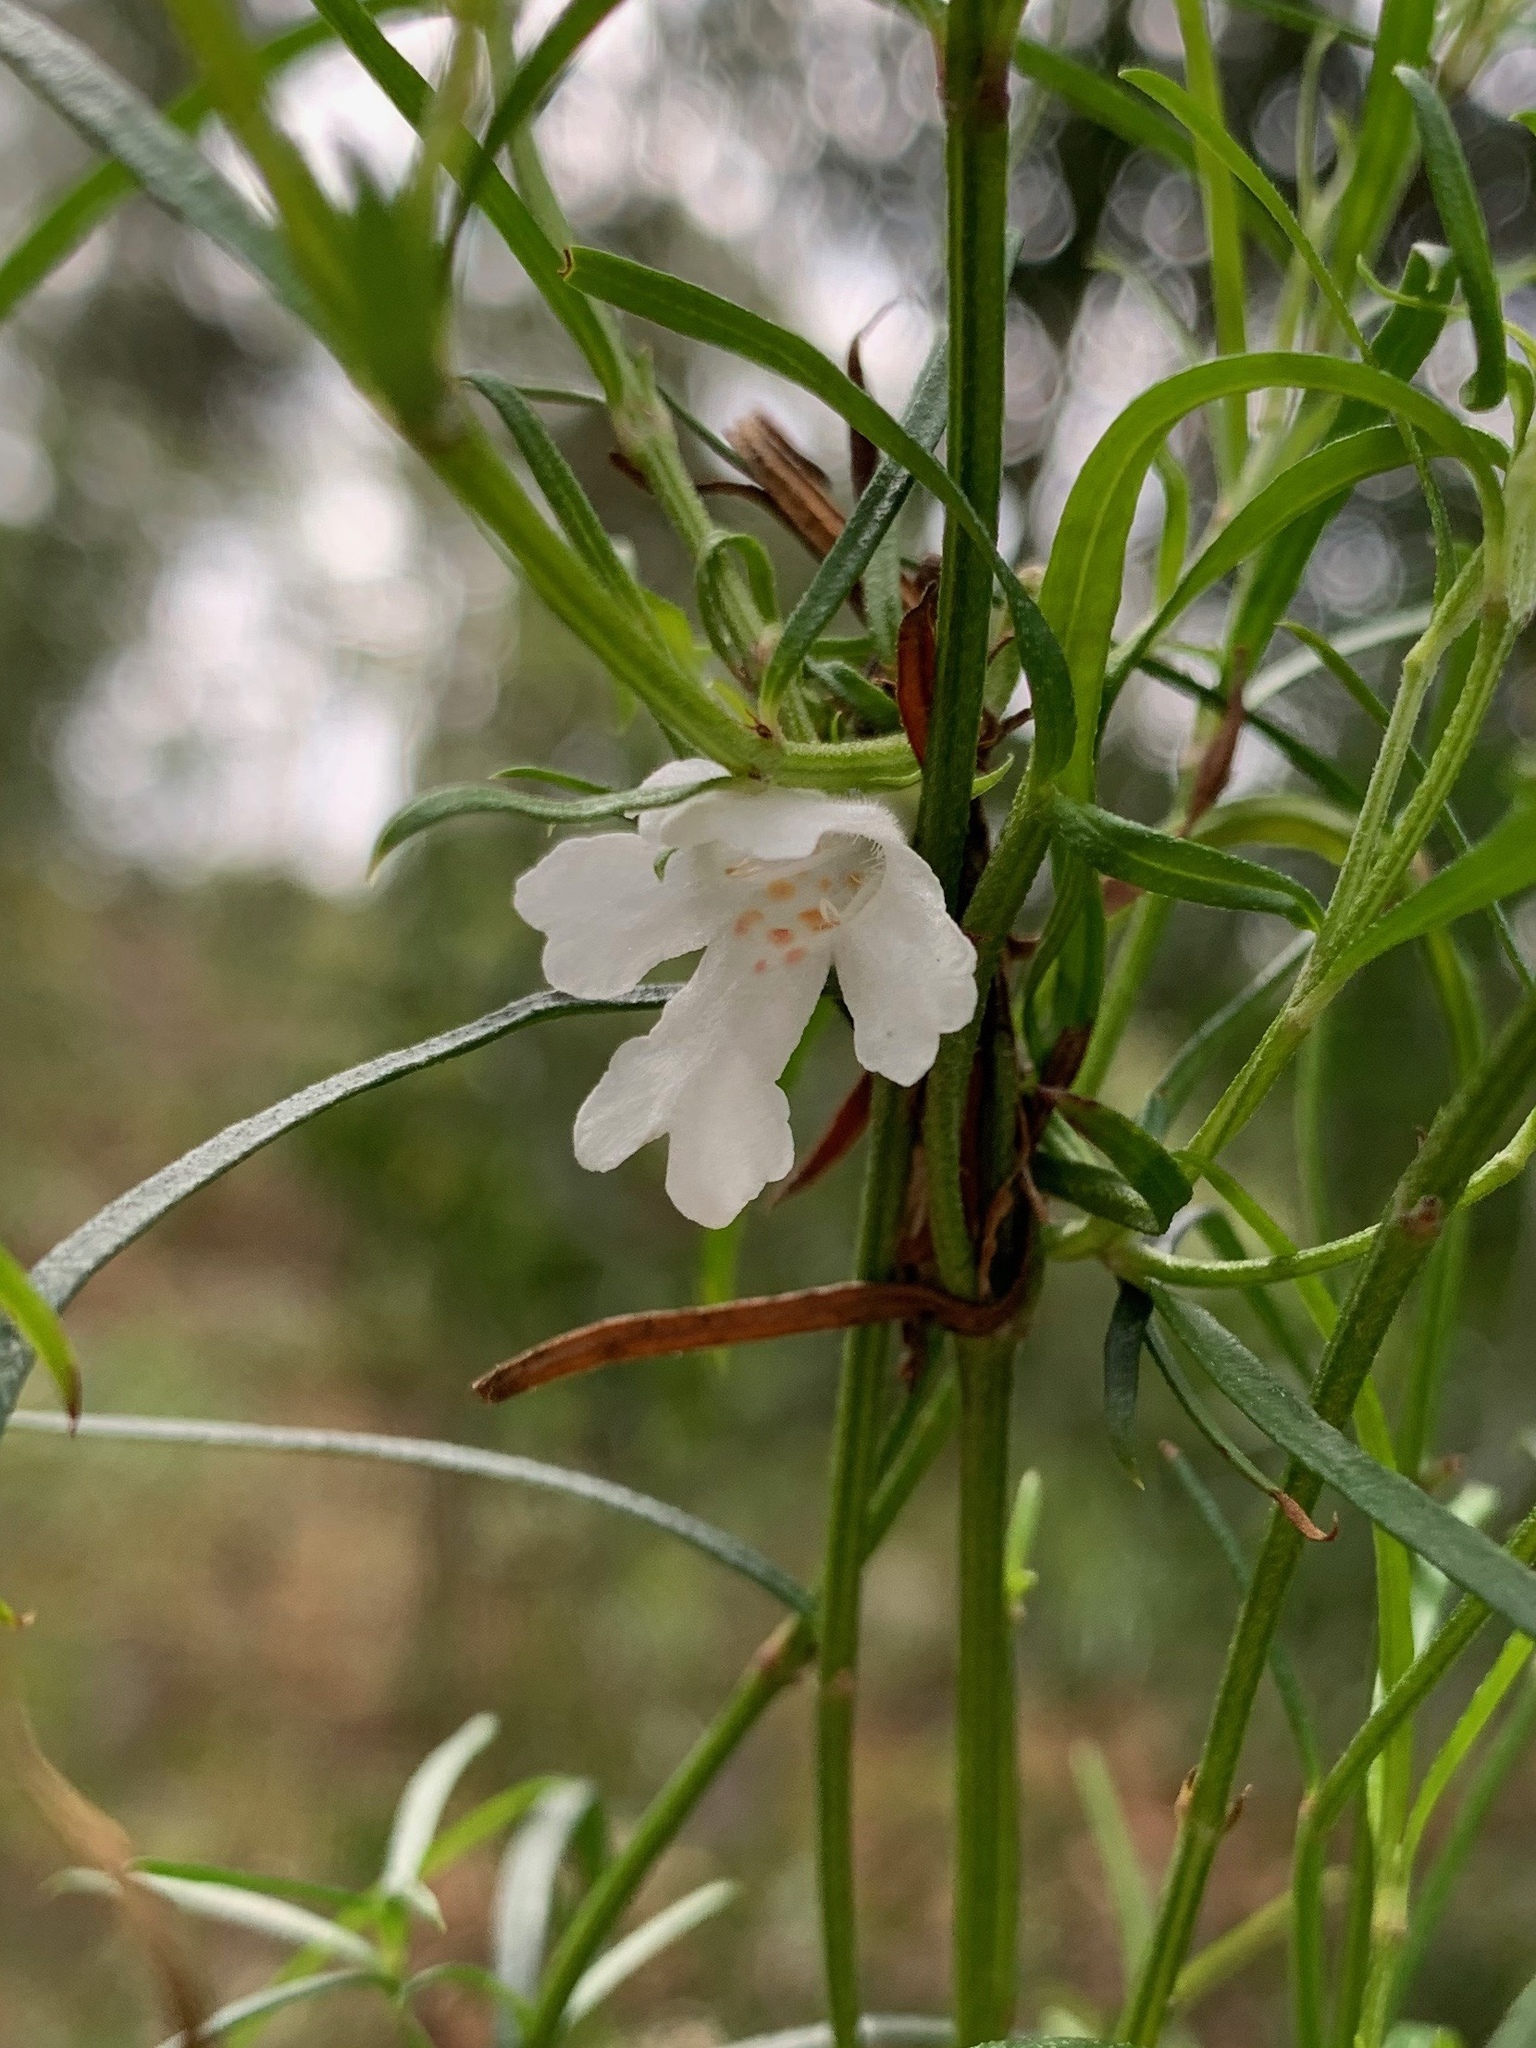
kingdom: Plantae
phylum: Tracheophyta
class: Magnoliopsida
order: Lamiales
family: Lamiaceae
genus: Westringia
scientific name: Westringia longifolia
